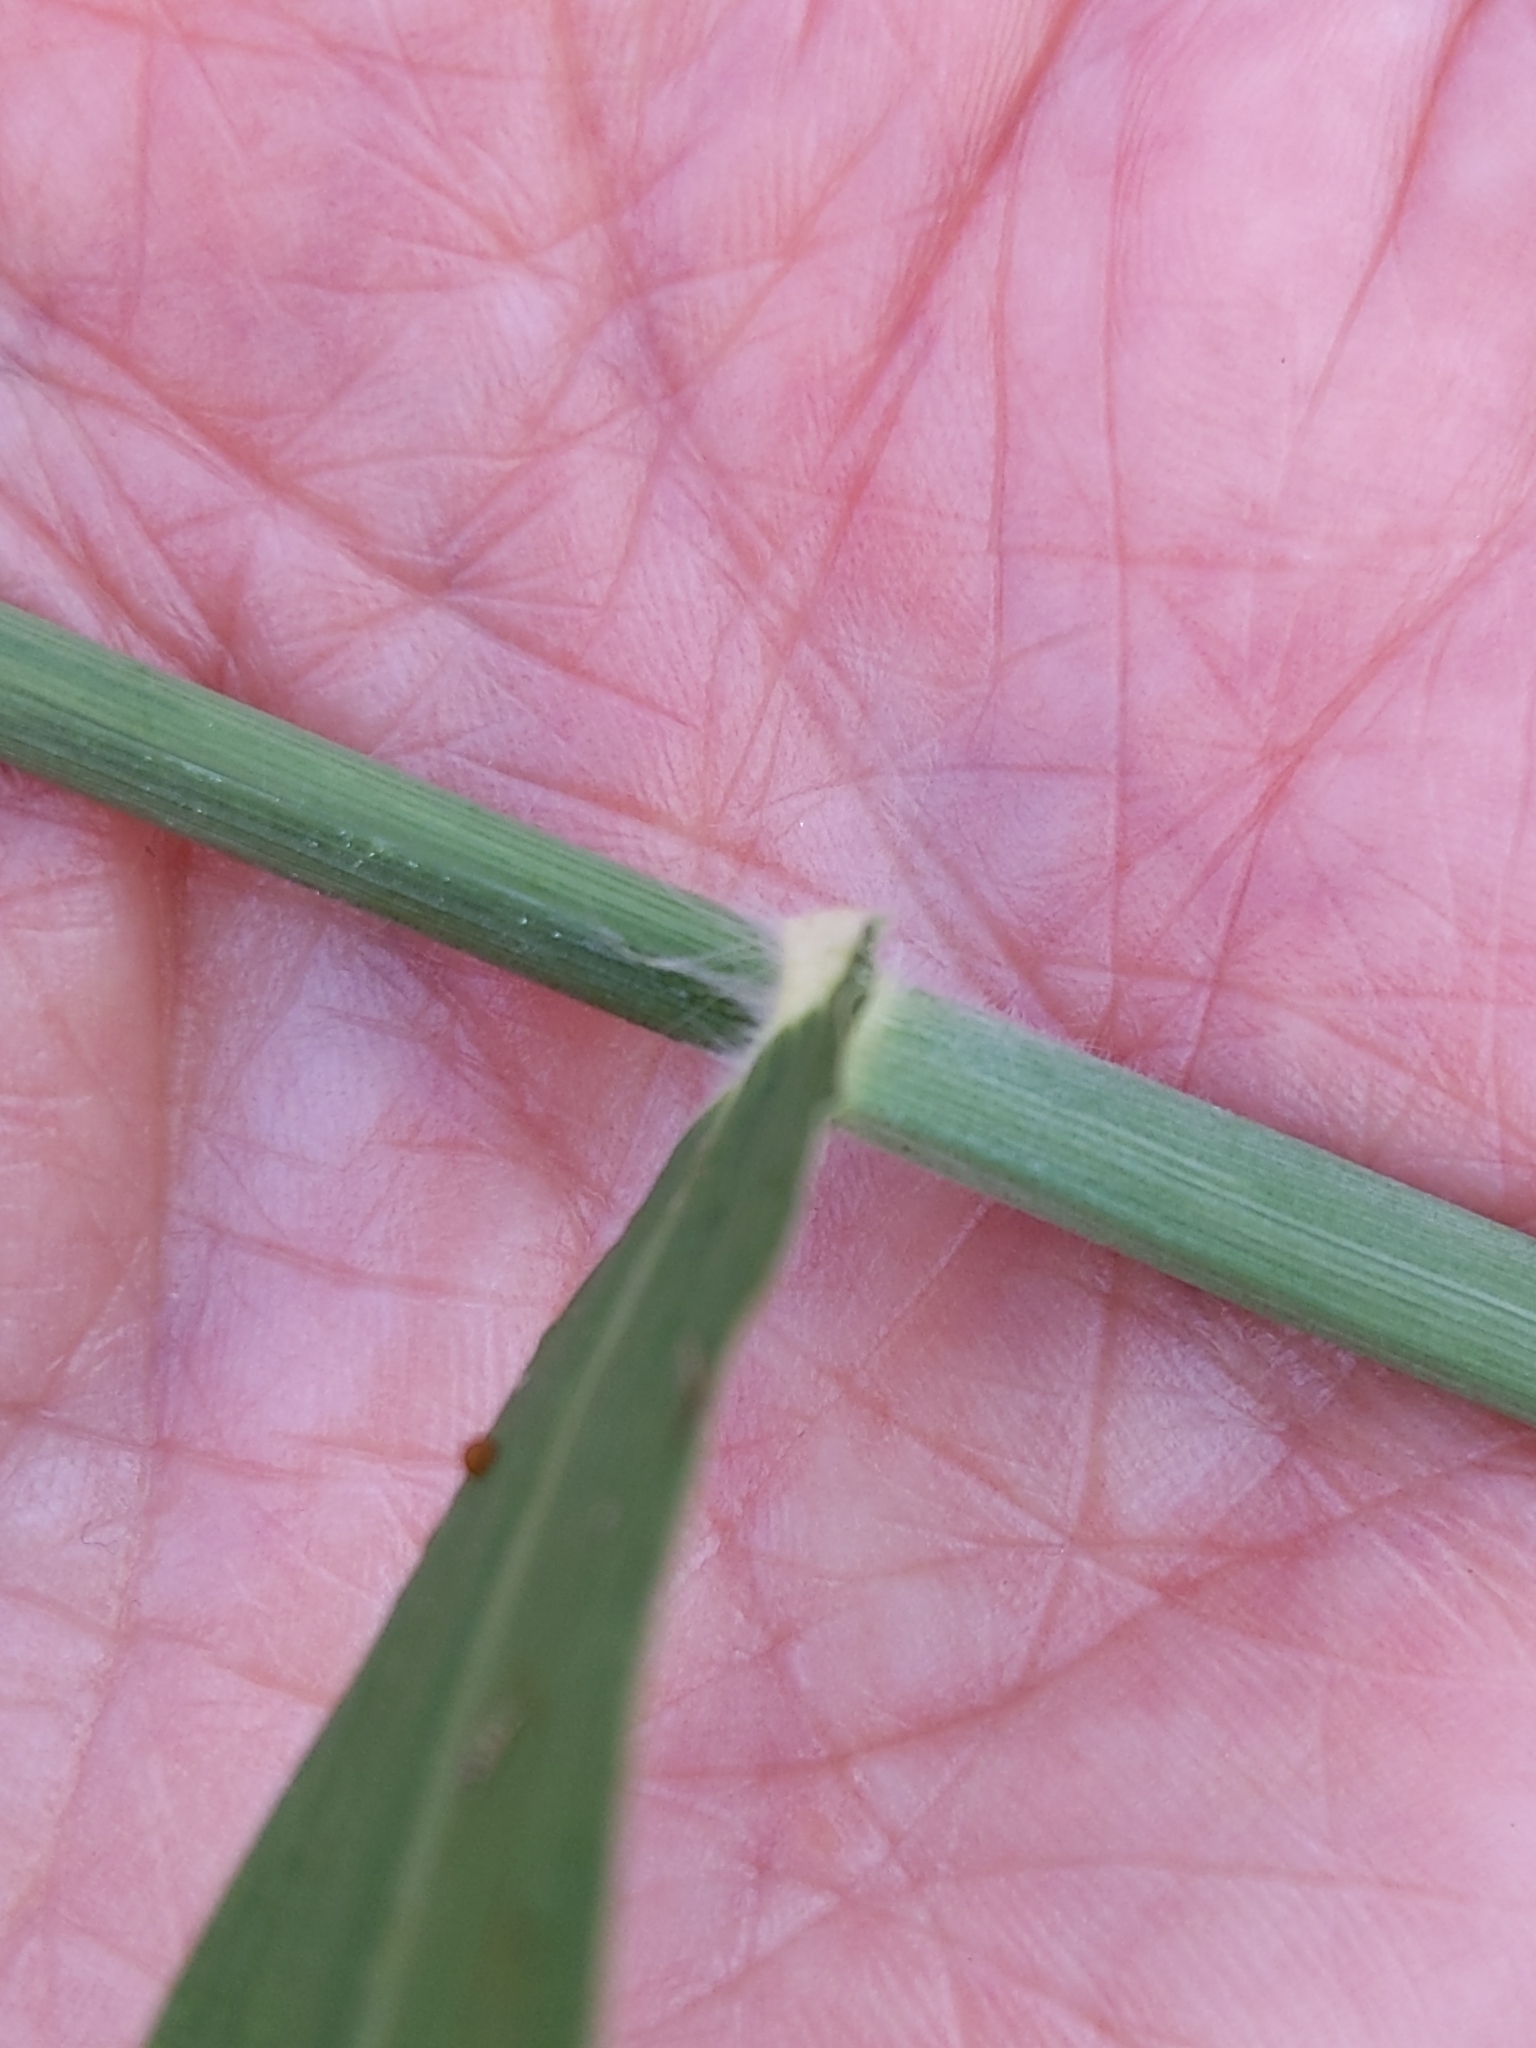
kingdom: Plantae
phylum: Tracheophyta
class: Liliopsida
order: Poales
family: Poaceae
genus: Megathyrsus
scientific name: Megathyrsus maximus
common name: Guineagrass
